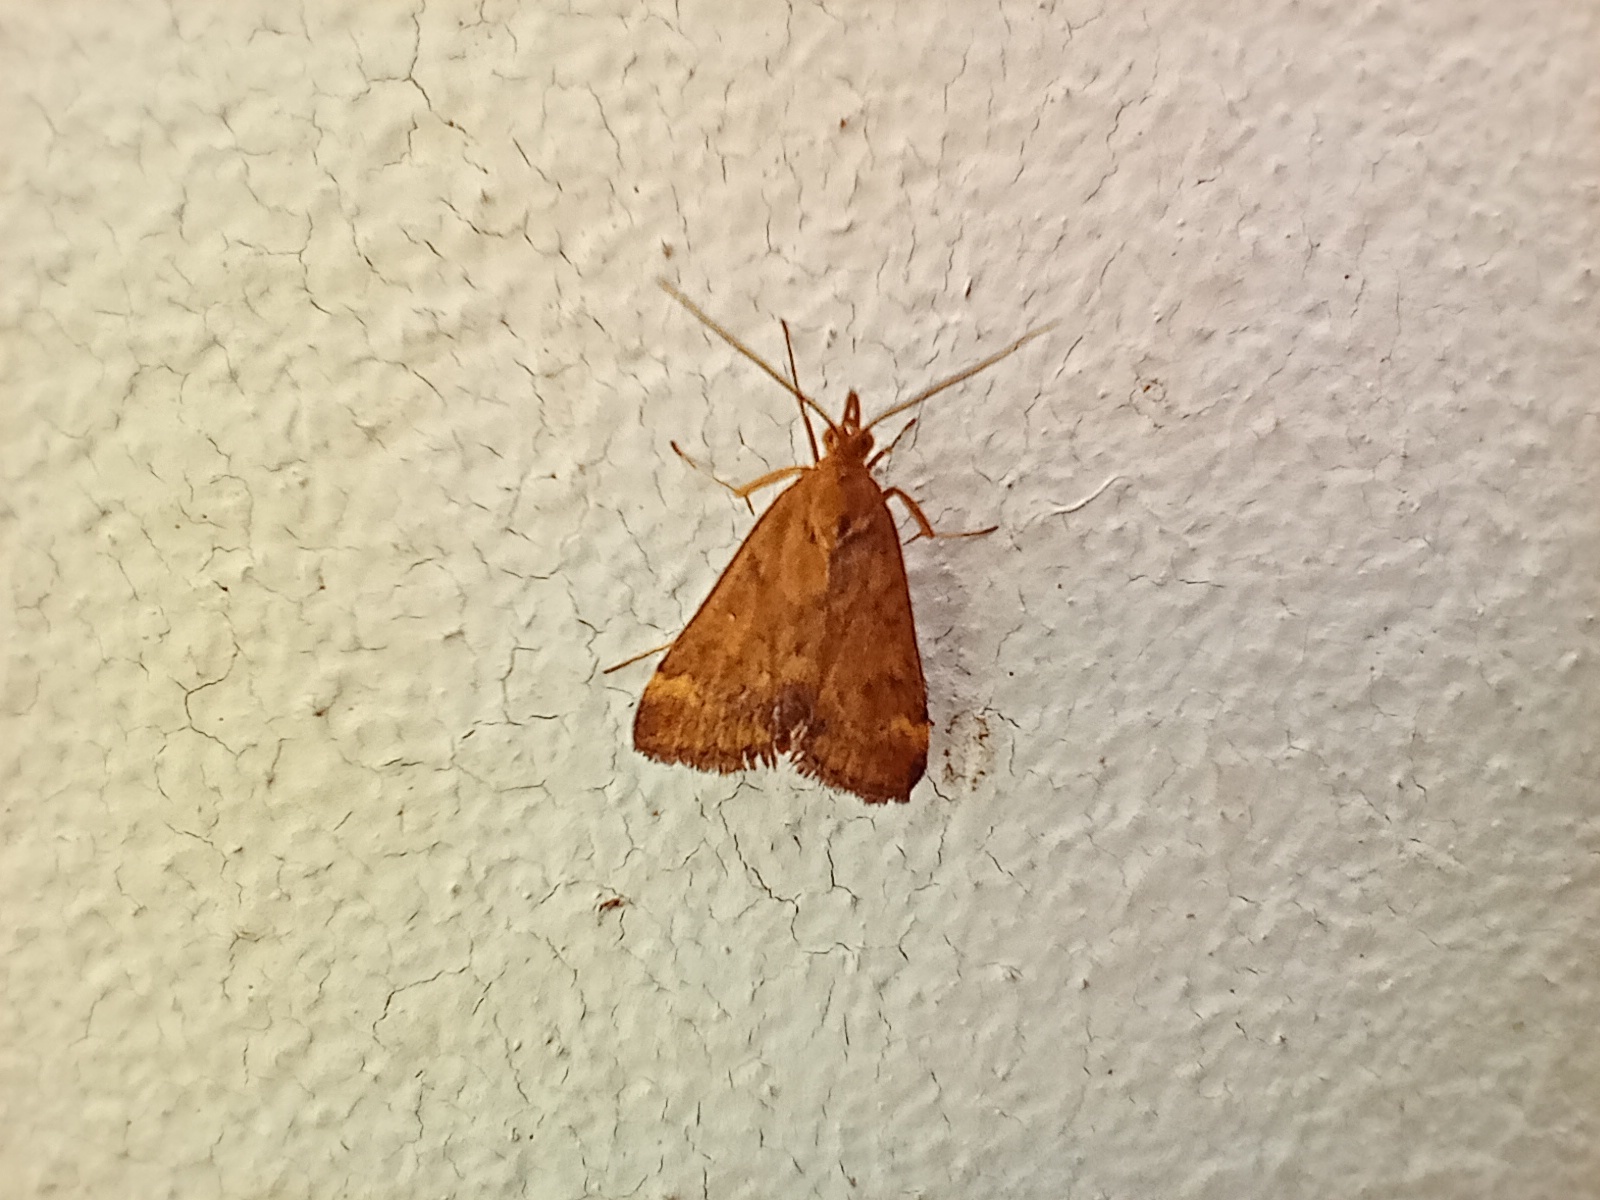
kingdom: Animalia
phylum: Arthropoda
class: Insecta
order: Lepidoptera
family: Crambidae
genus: Pyrausta
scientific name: Pyrausta despicata
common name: Straw-barred pearl
